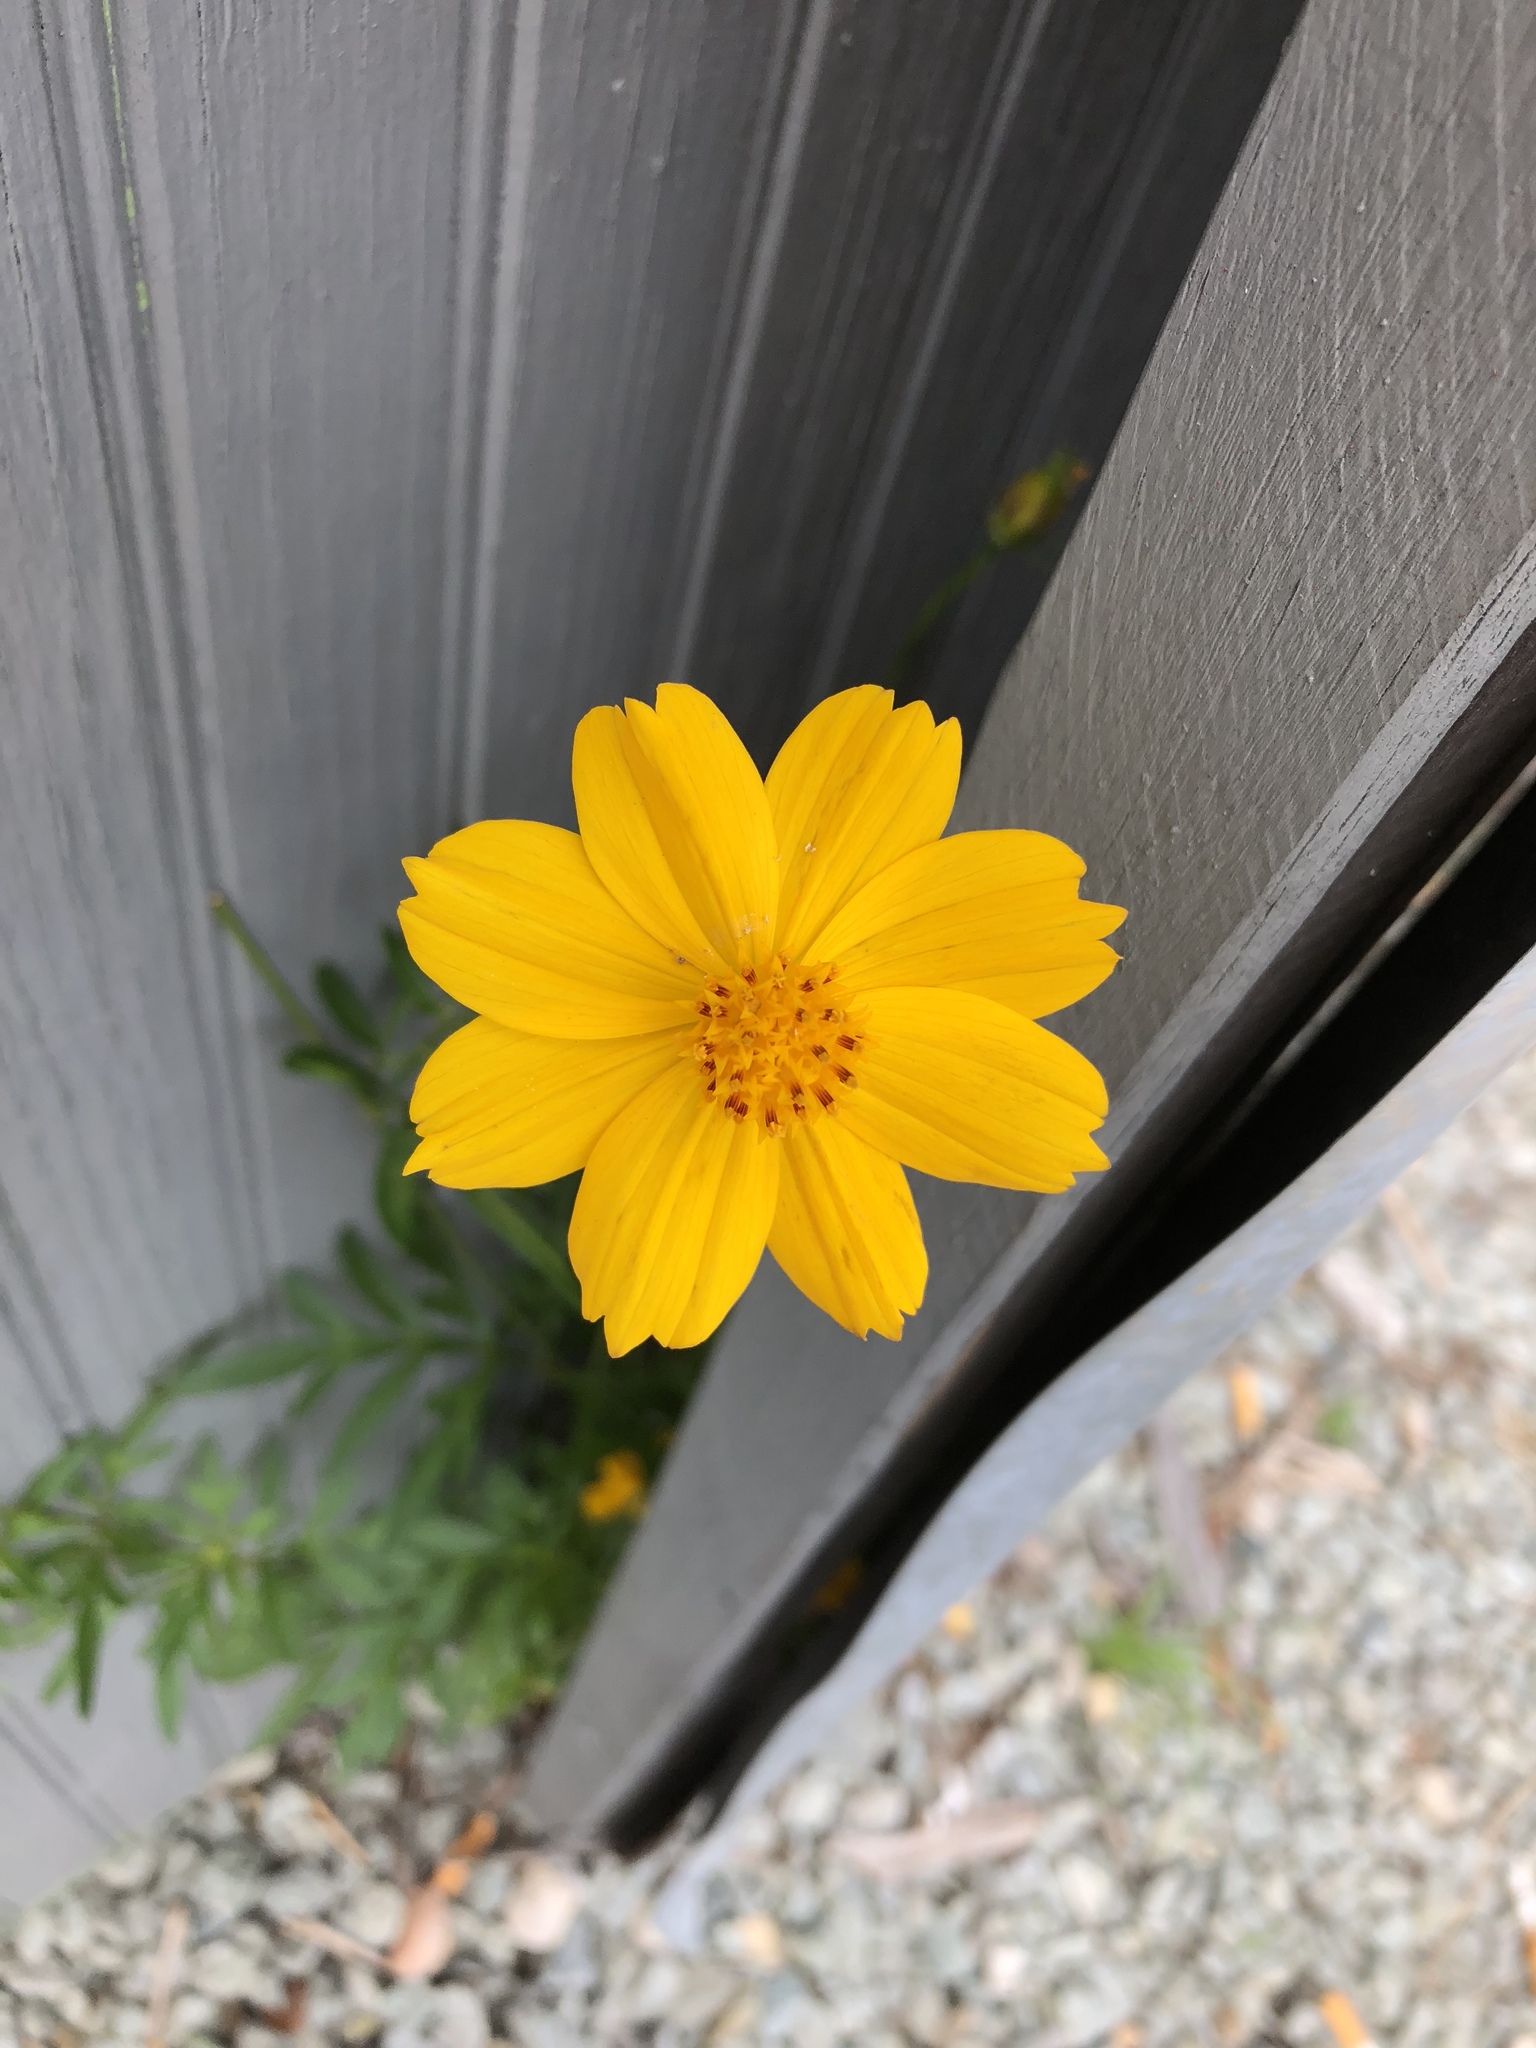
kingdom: Plantae
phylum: Tracheophyta
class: Magnoliopsida
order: Asterales
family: Asteraceae
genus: Cosmos
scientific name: Cosmos sulphureus
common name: Sulphur cosmos
